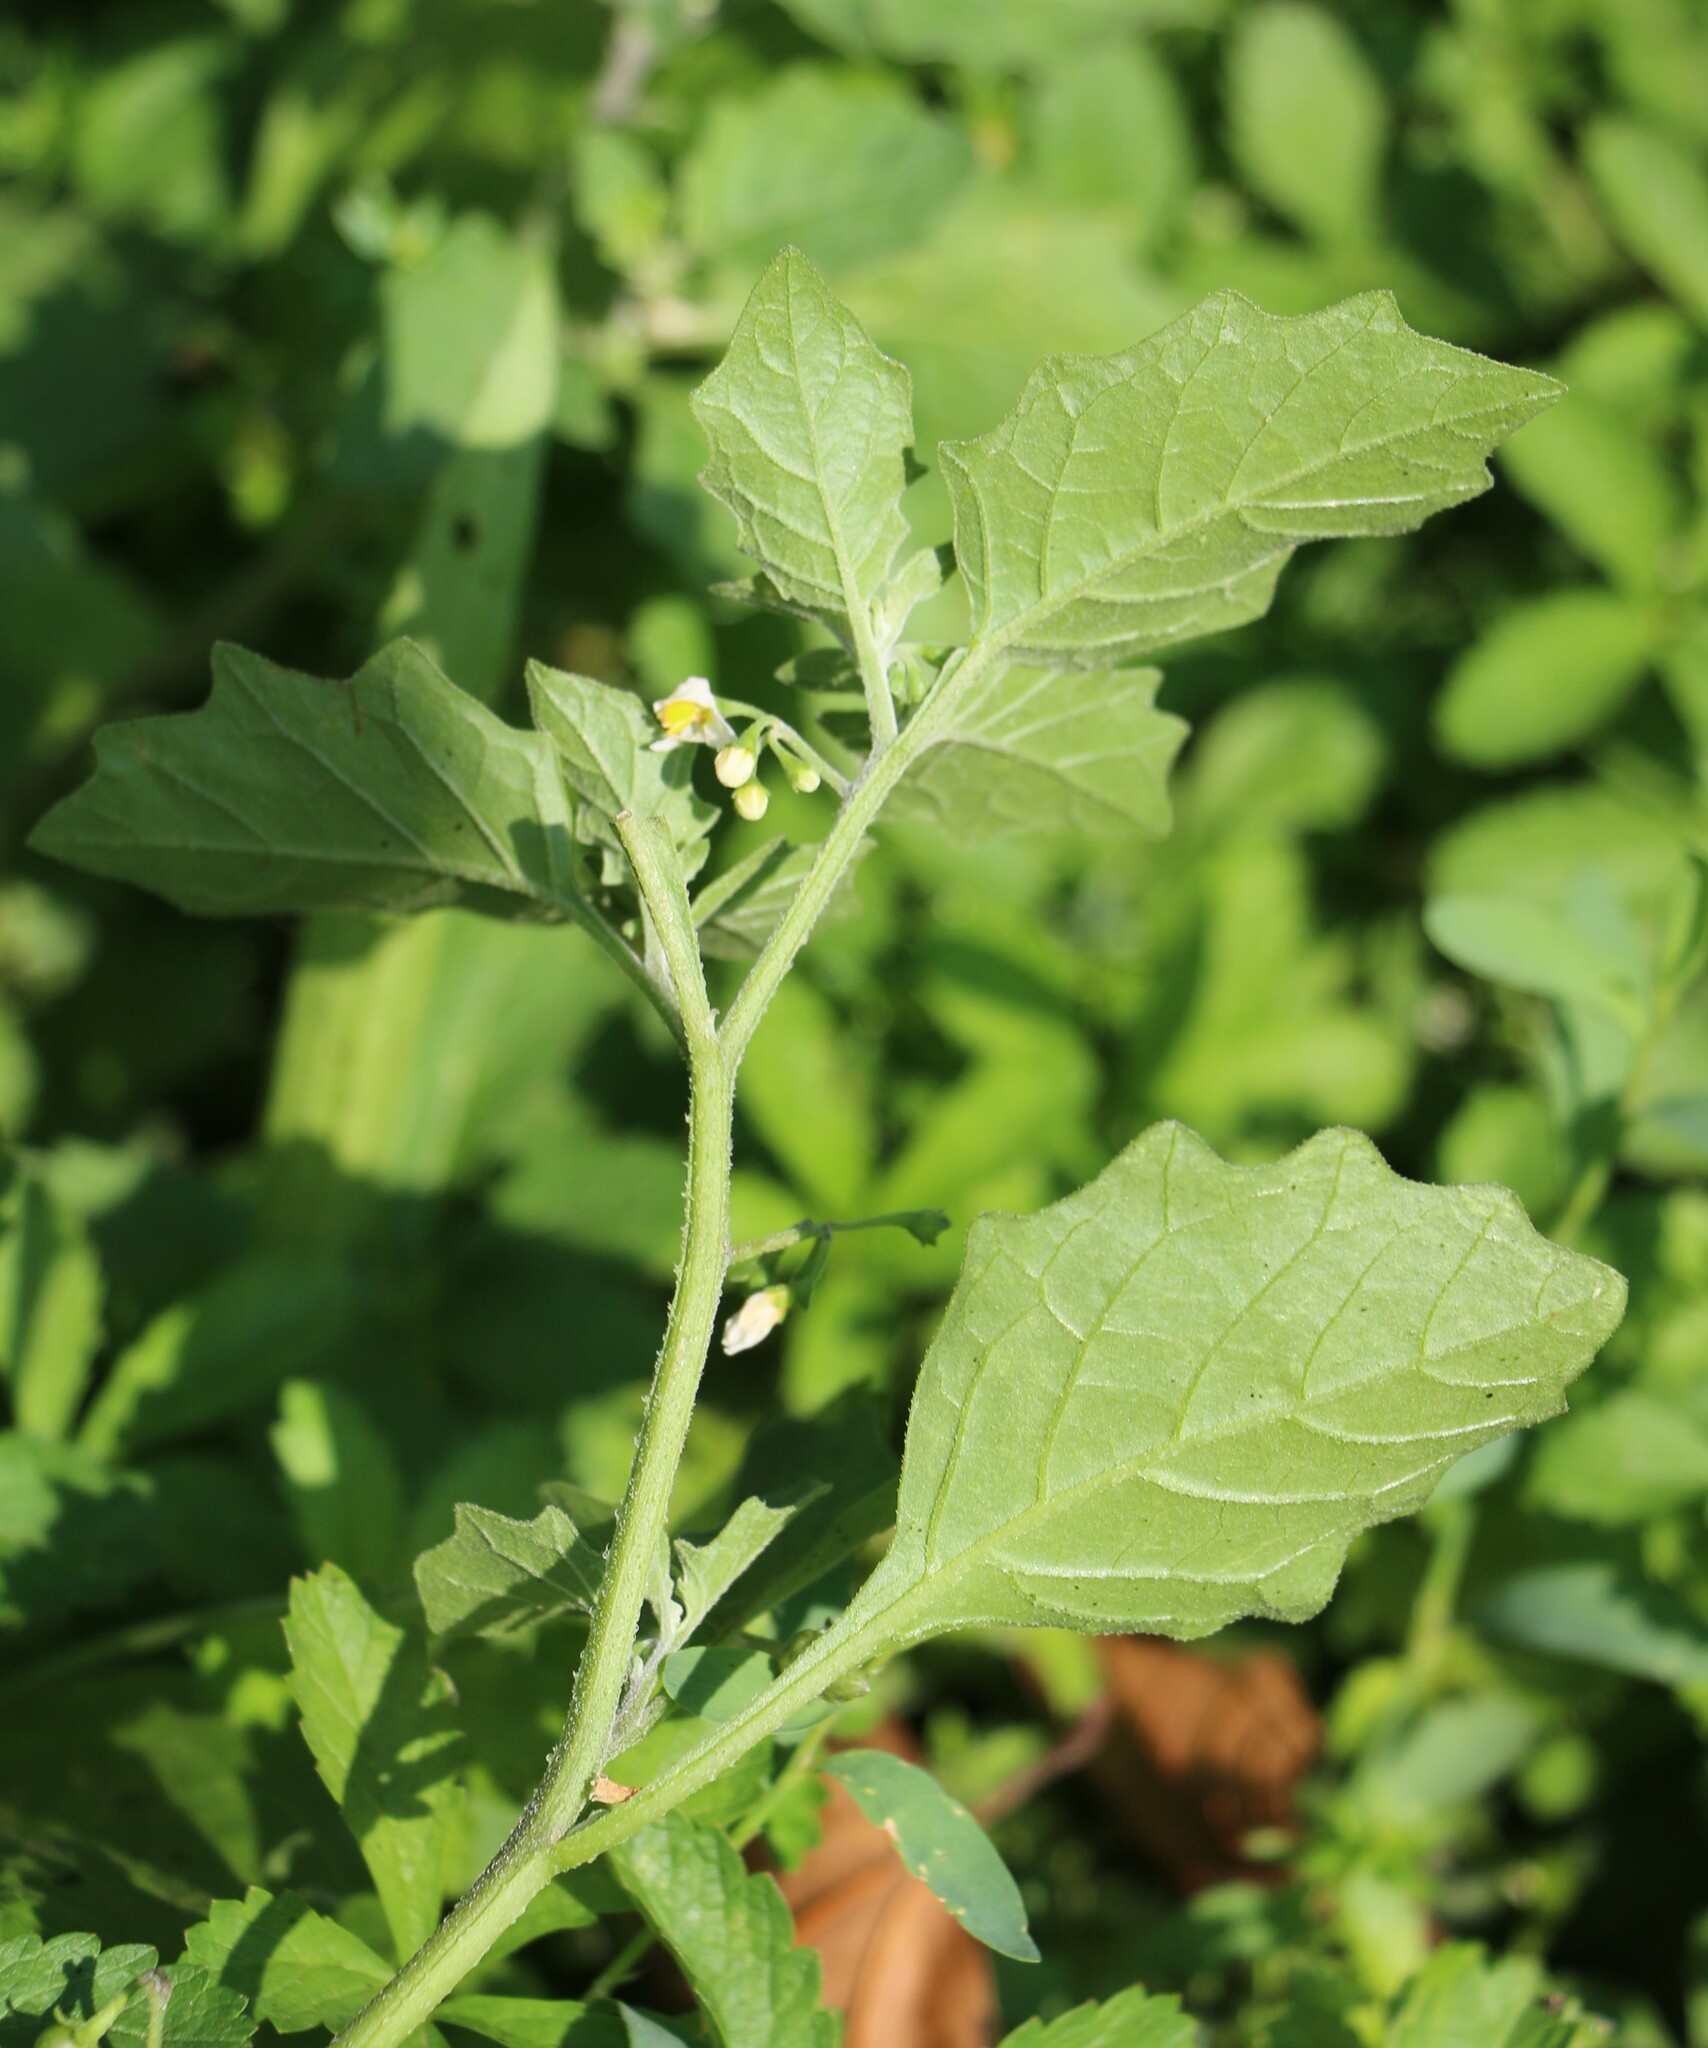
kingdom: Plantae
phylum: Tracheophyta
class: Magnoliopsida
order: Solanales
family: Solanaceae
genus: Solanum
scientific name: Solanum nigrum
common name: Black nightshade
